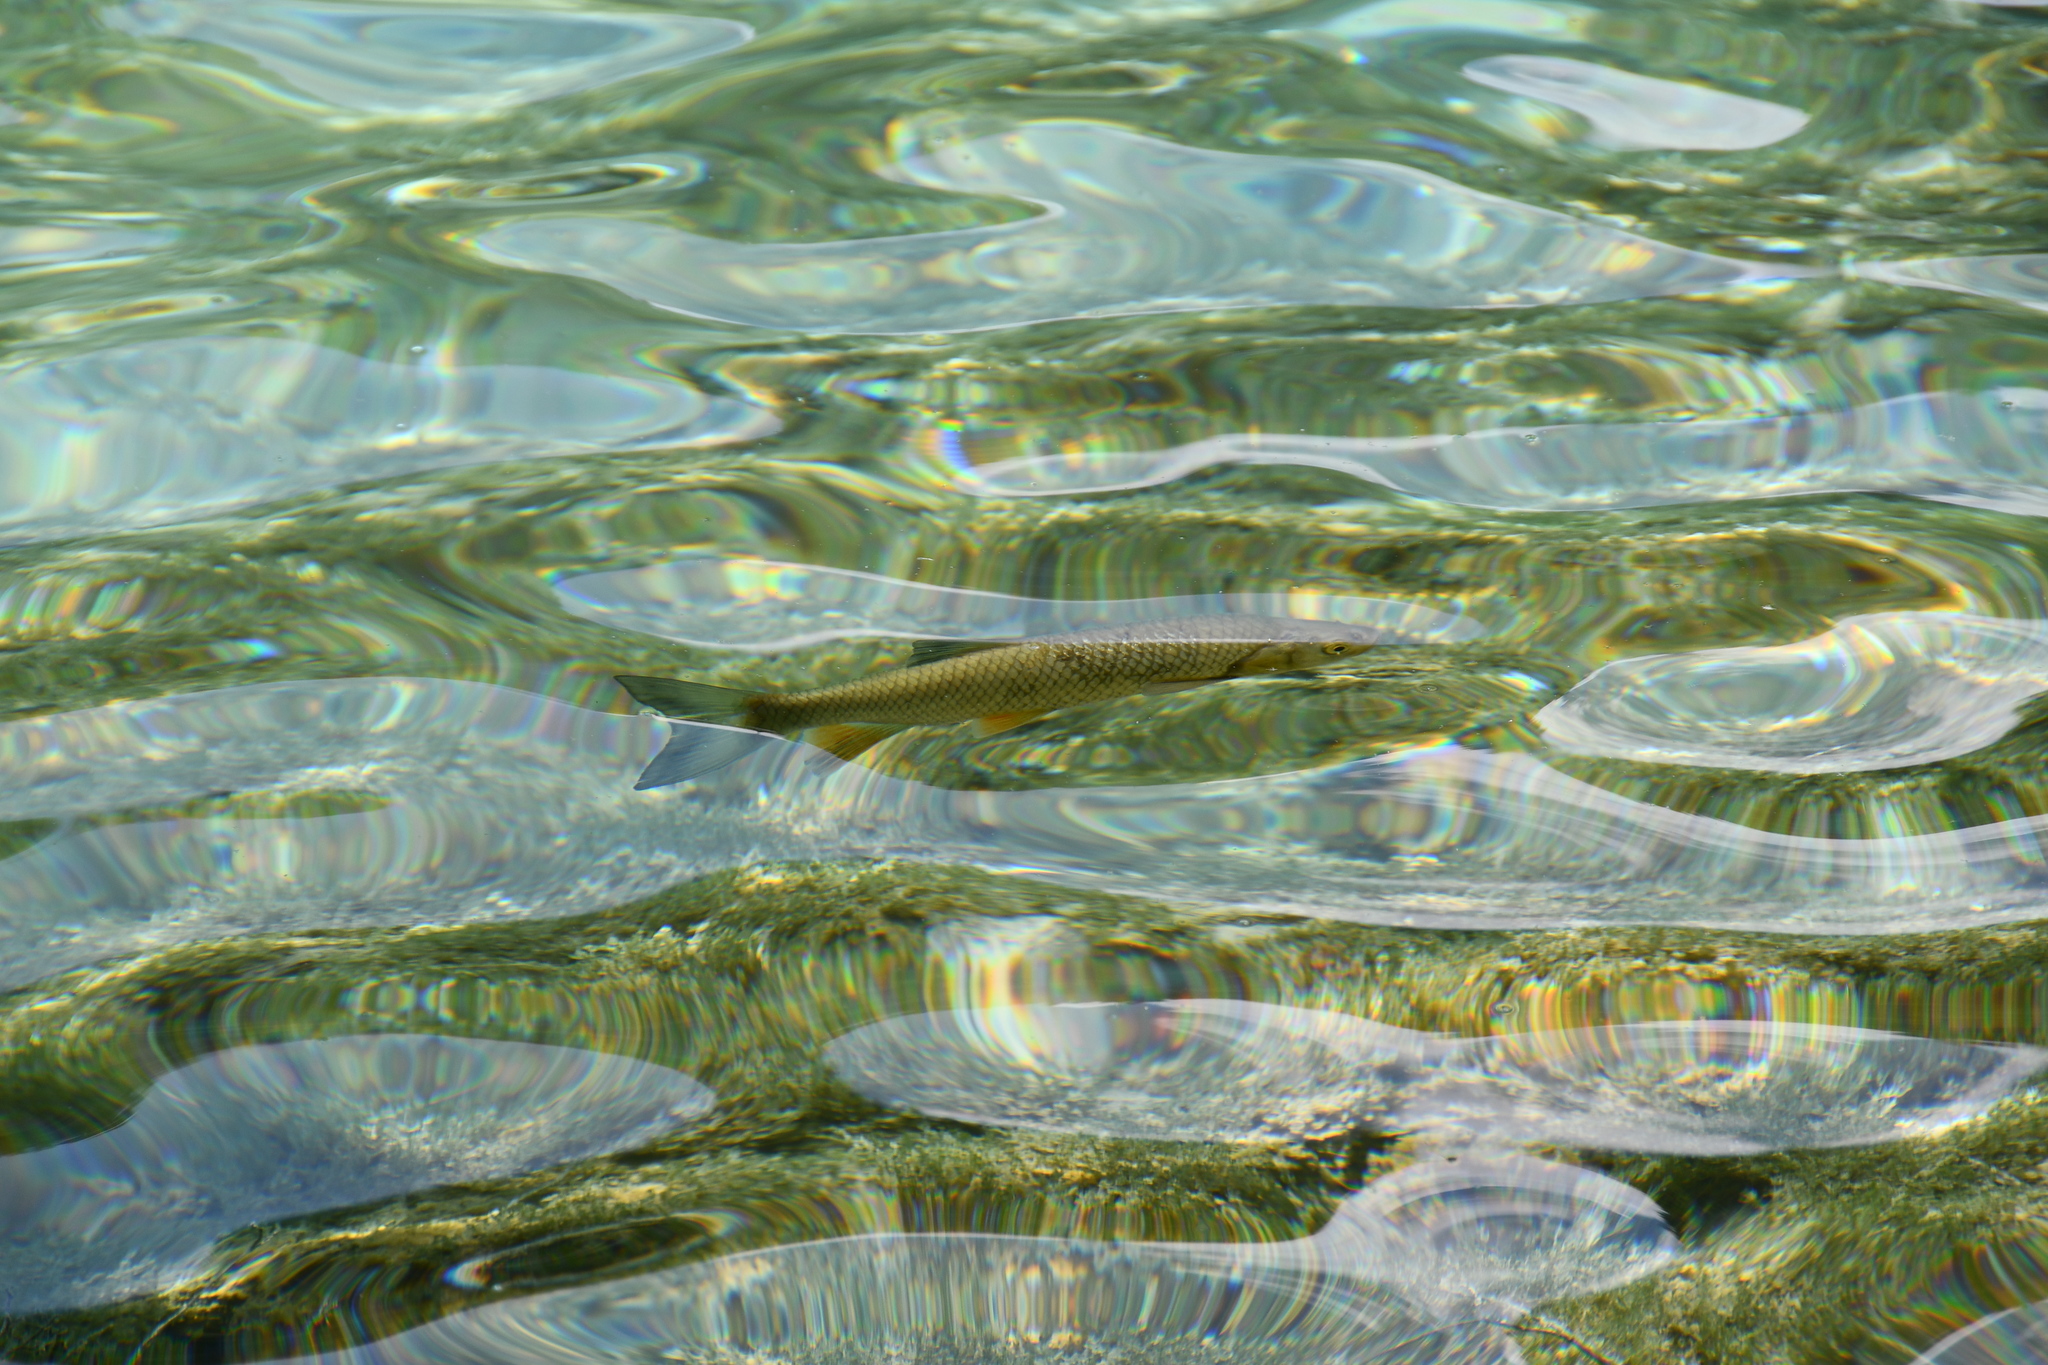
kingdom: Animalia
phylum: Chordata
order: Cypriniformes
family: Cyprinidae
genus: Squalius
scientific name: Squalius cephalus
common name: Chub
